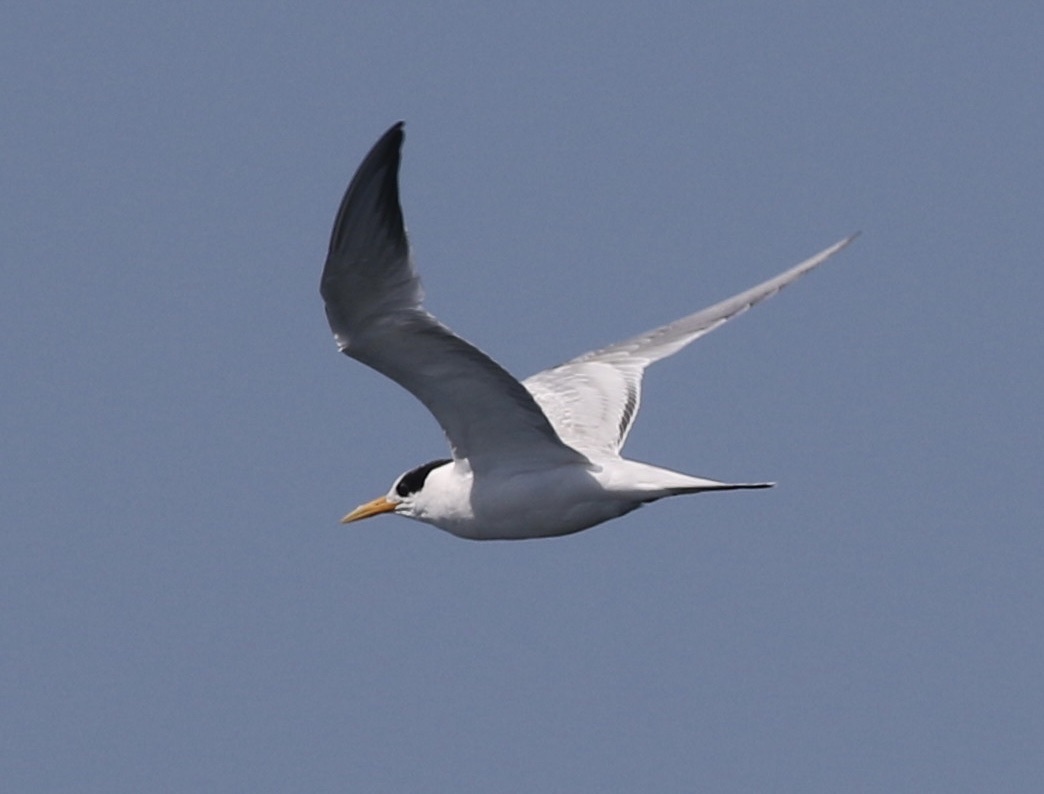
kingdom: Animalia
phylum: Chordata
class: Aves
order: Charadriiformes
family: Laridae
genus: Thalasseus
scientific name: Thalasseus elegans
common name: Elegant tern
